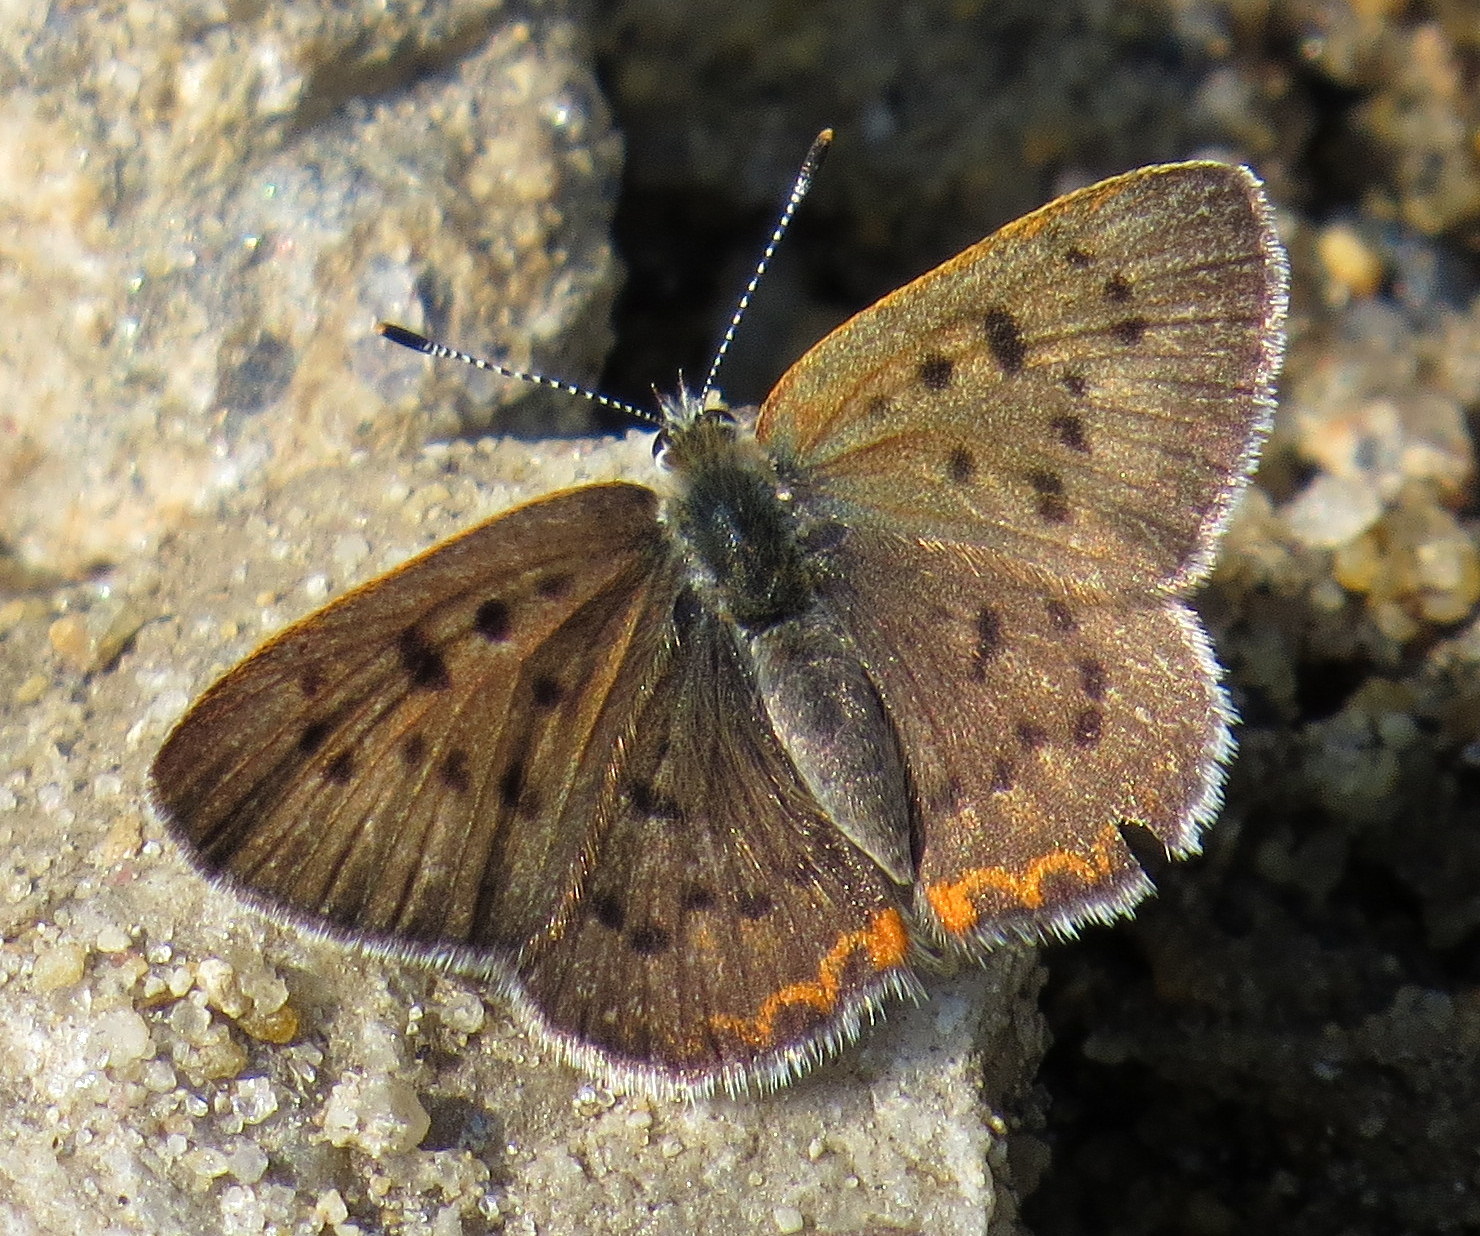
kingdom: Animalia
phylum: Arthropoda
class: Insecta
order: Lepidoptera
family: Lycaenidae
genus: Tharsalea
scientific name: Tharsalea epixanthe
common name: Bog copper
